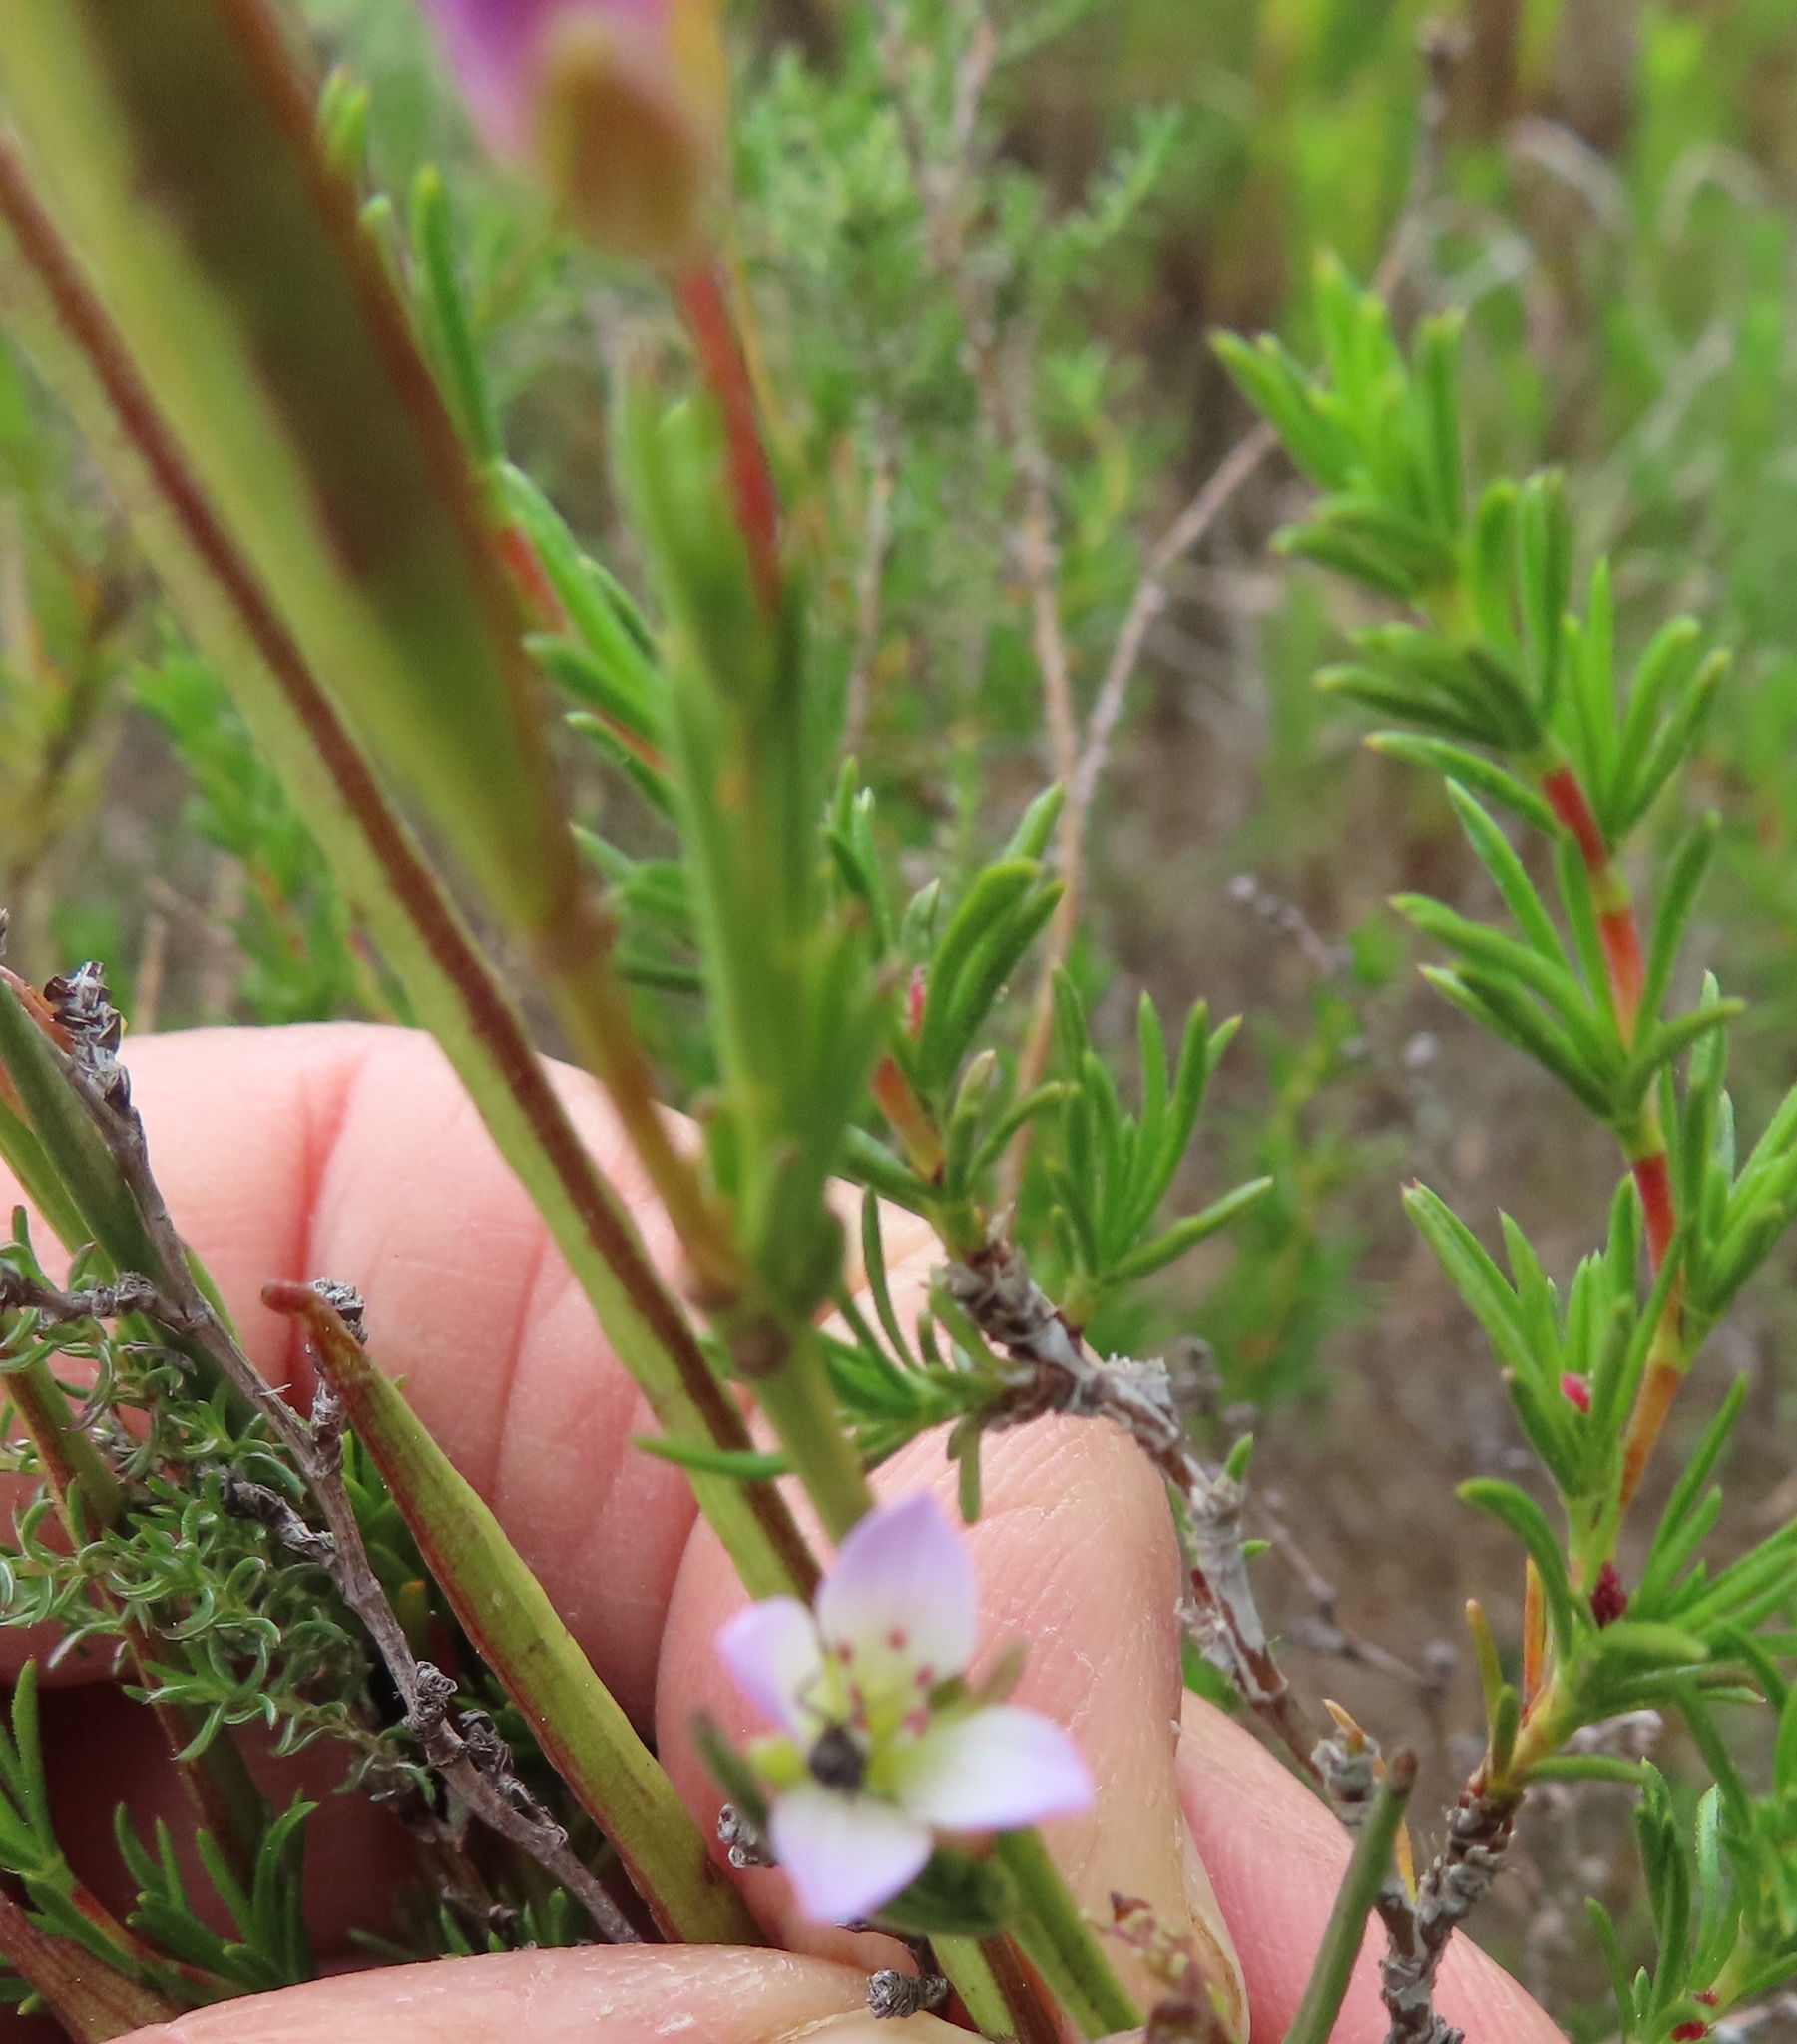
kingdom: Plantae
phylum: Tracheophyta
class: Magnoliopsida
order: Brassicales
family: Brassicaceae
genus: Heliophila
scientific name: Heliophila scoparia
